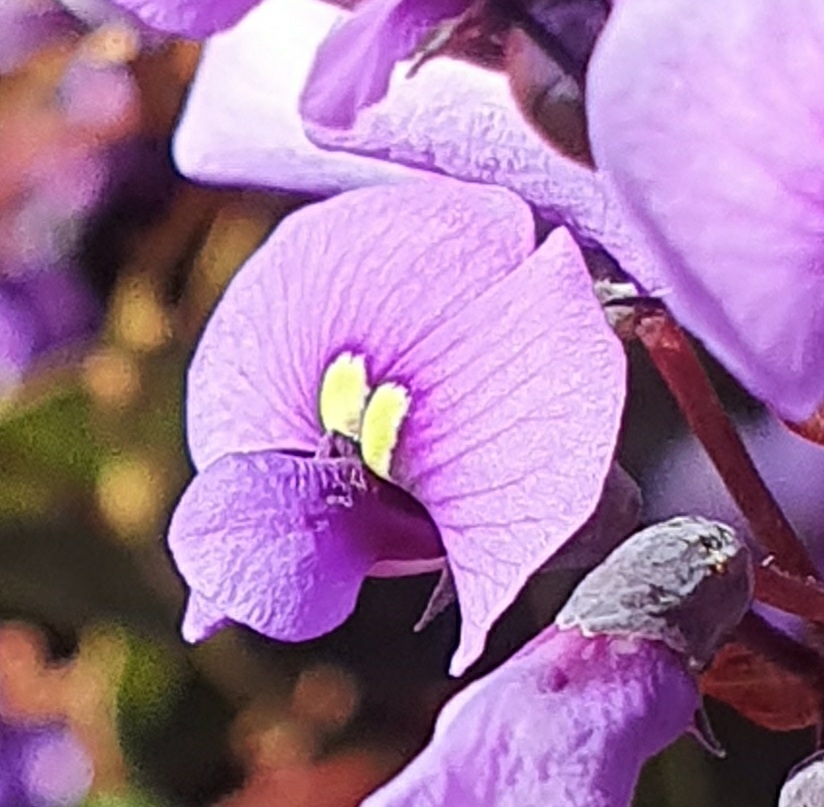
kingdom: Plantae
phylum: Tracheophyta
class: Magnoliopsida
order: Fabales
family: Fabaceae
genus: Hardenbergia
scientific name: Hardenbergia violacea
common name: Coral-pea
